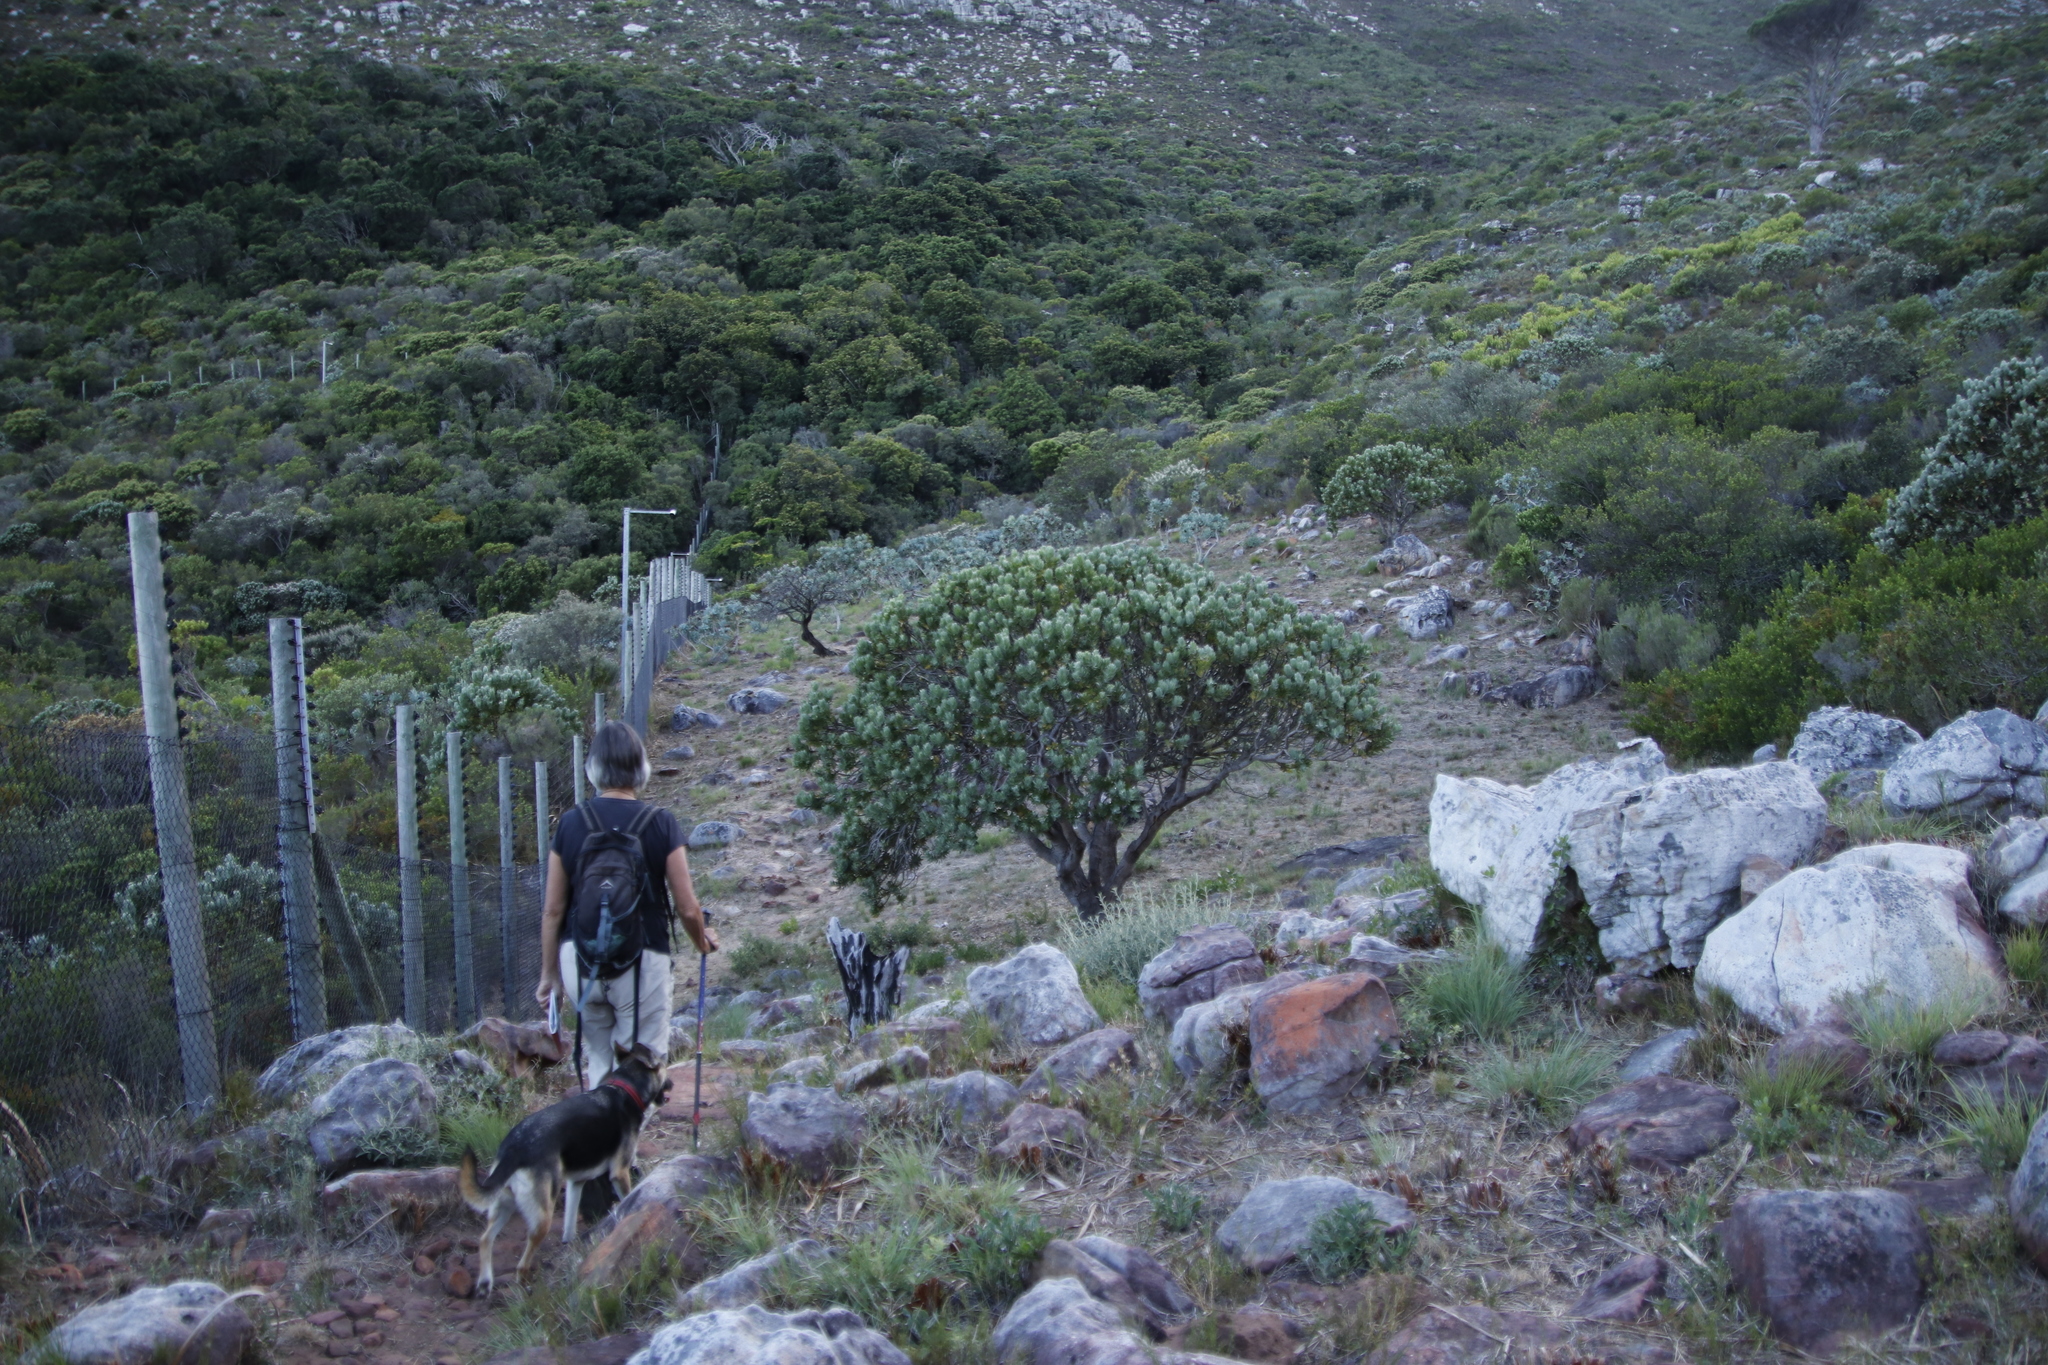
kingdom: Plantae
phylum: Tracheophyta
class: Magnoliopsida
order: Proteales
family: Proteaceae
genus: Leucospermum
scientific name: Leucospermum conocarpodendron
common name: Tree pincushion
